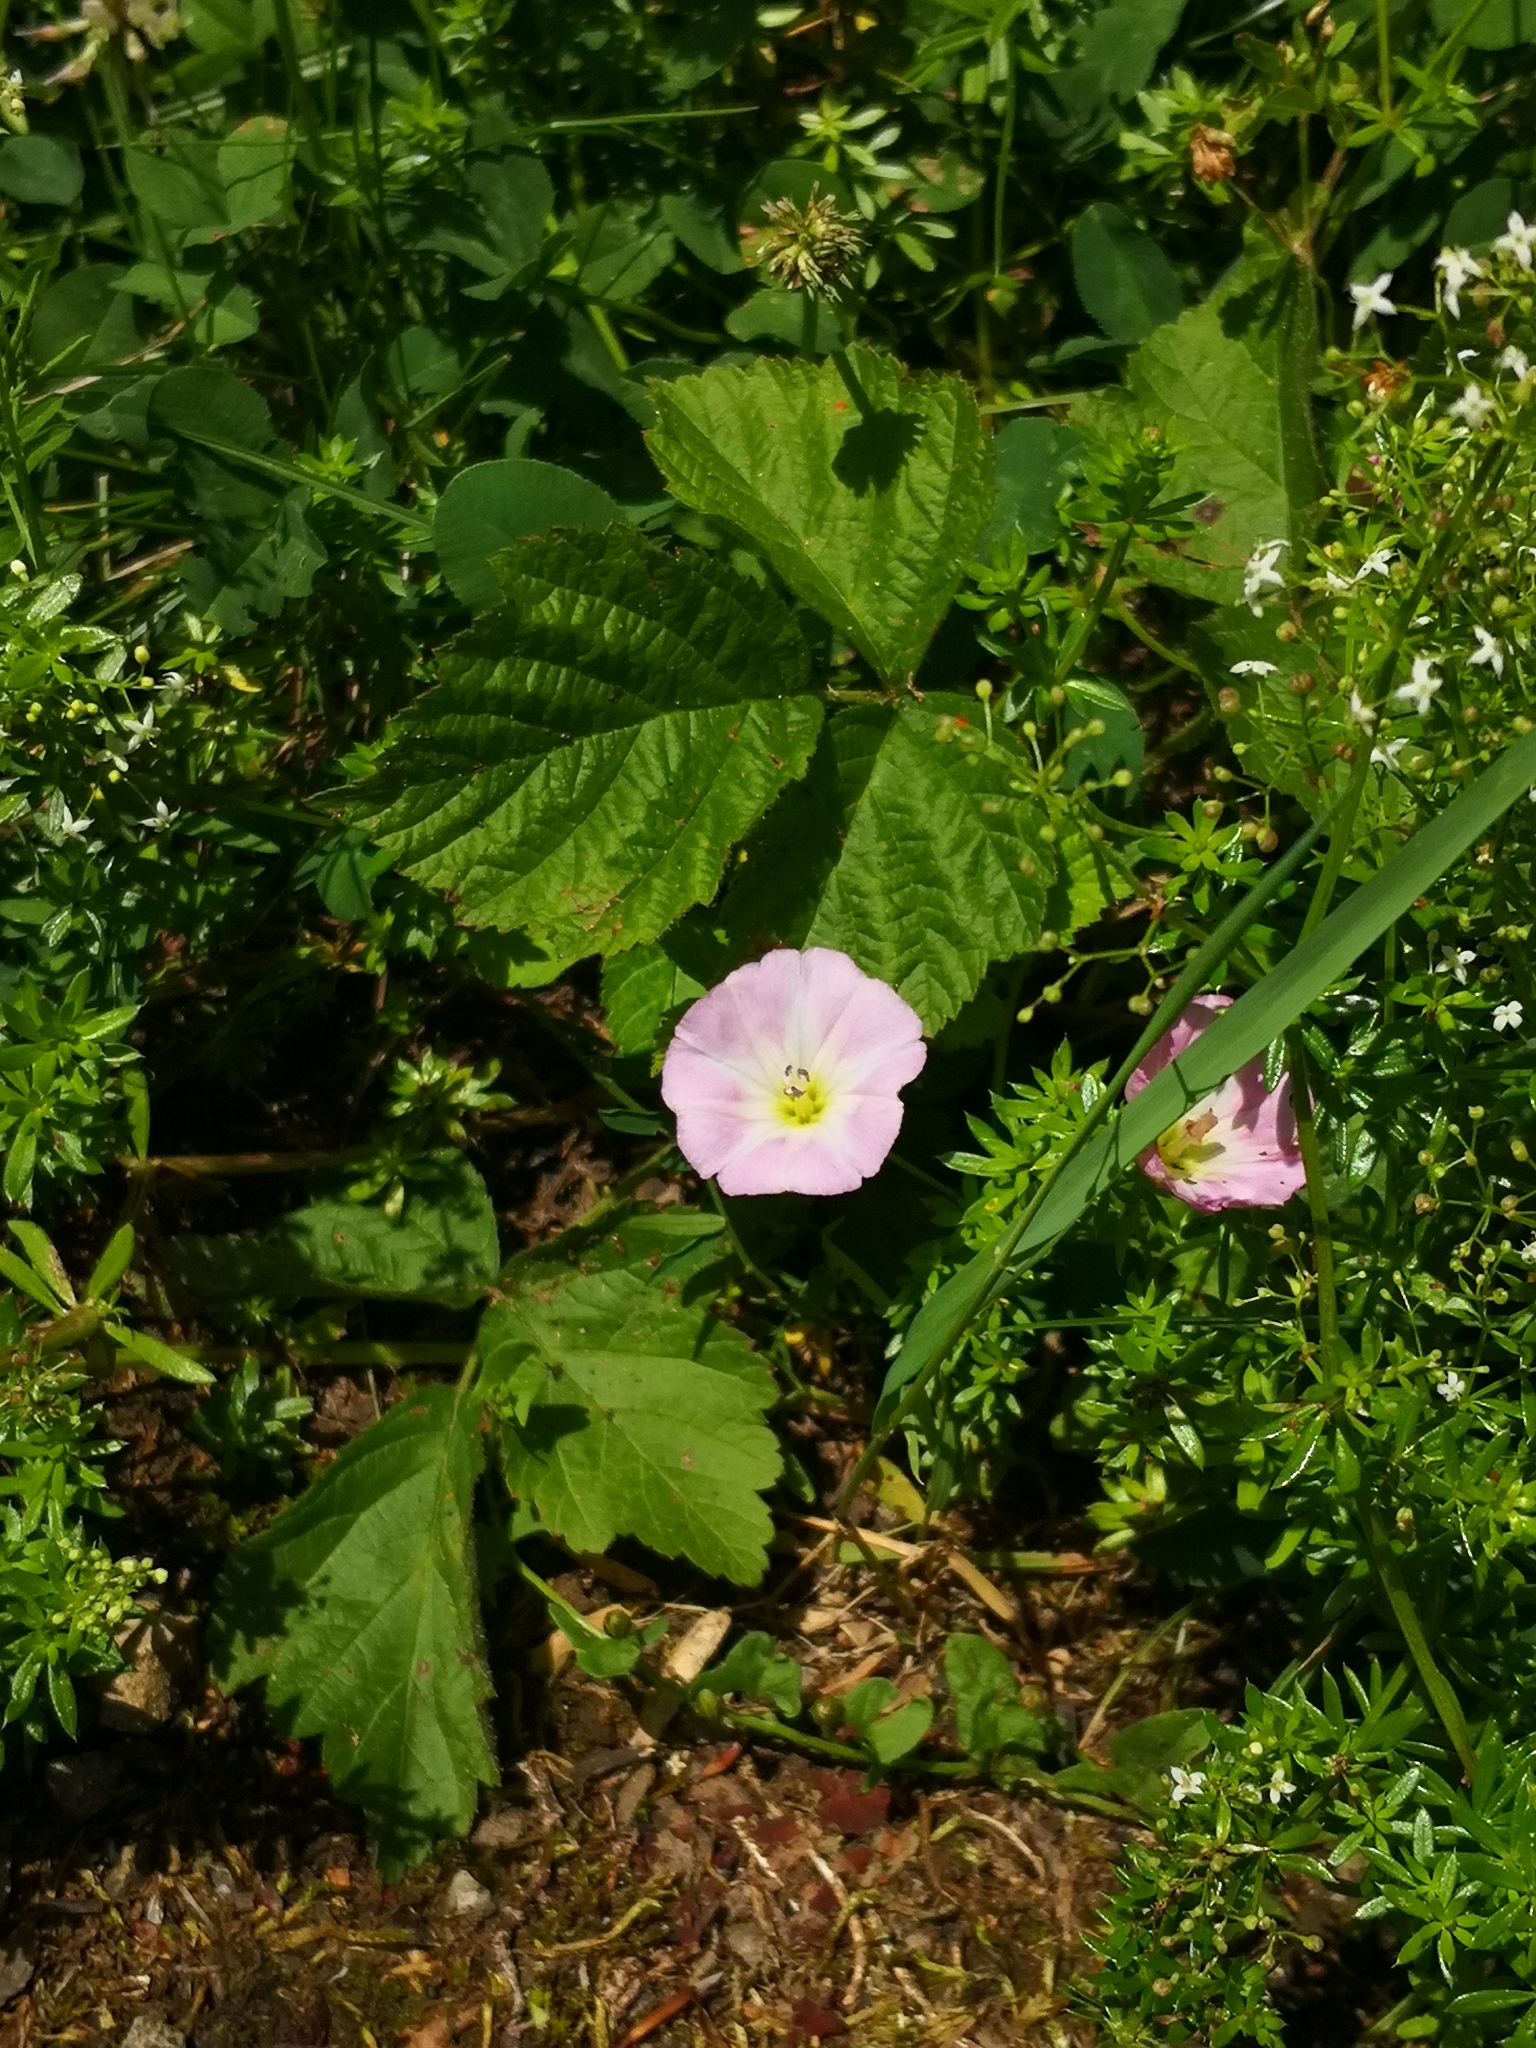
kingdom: Plantae
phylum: Tracheophyta
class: Magnoliopsida
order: Solanales
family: Convolvulaceae
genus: Convolvulus
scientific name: Convolvulus arvensis
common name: Field bindweed
